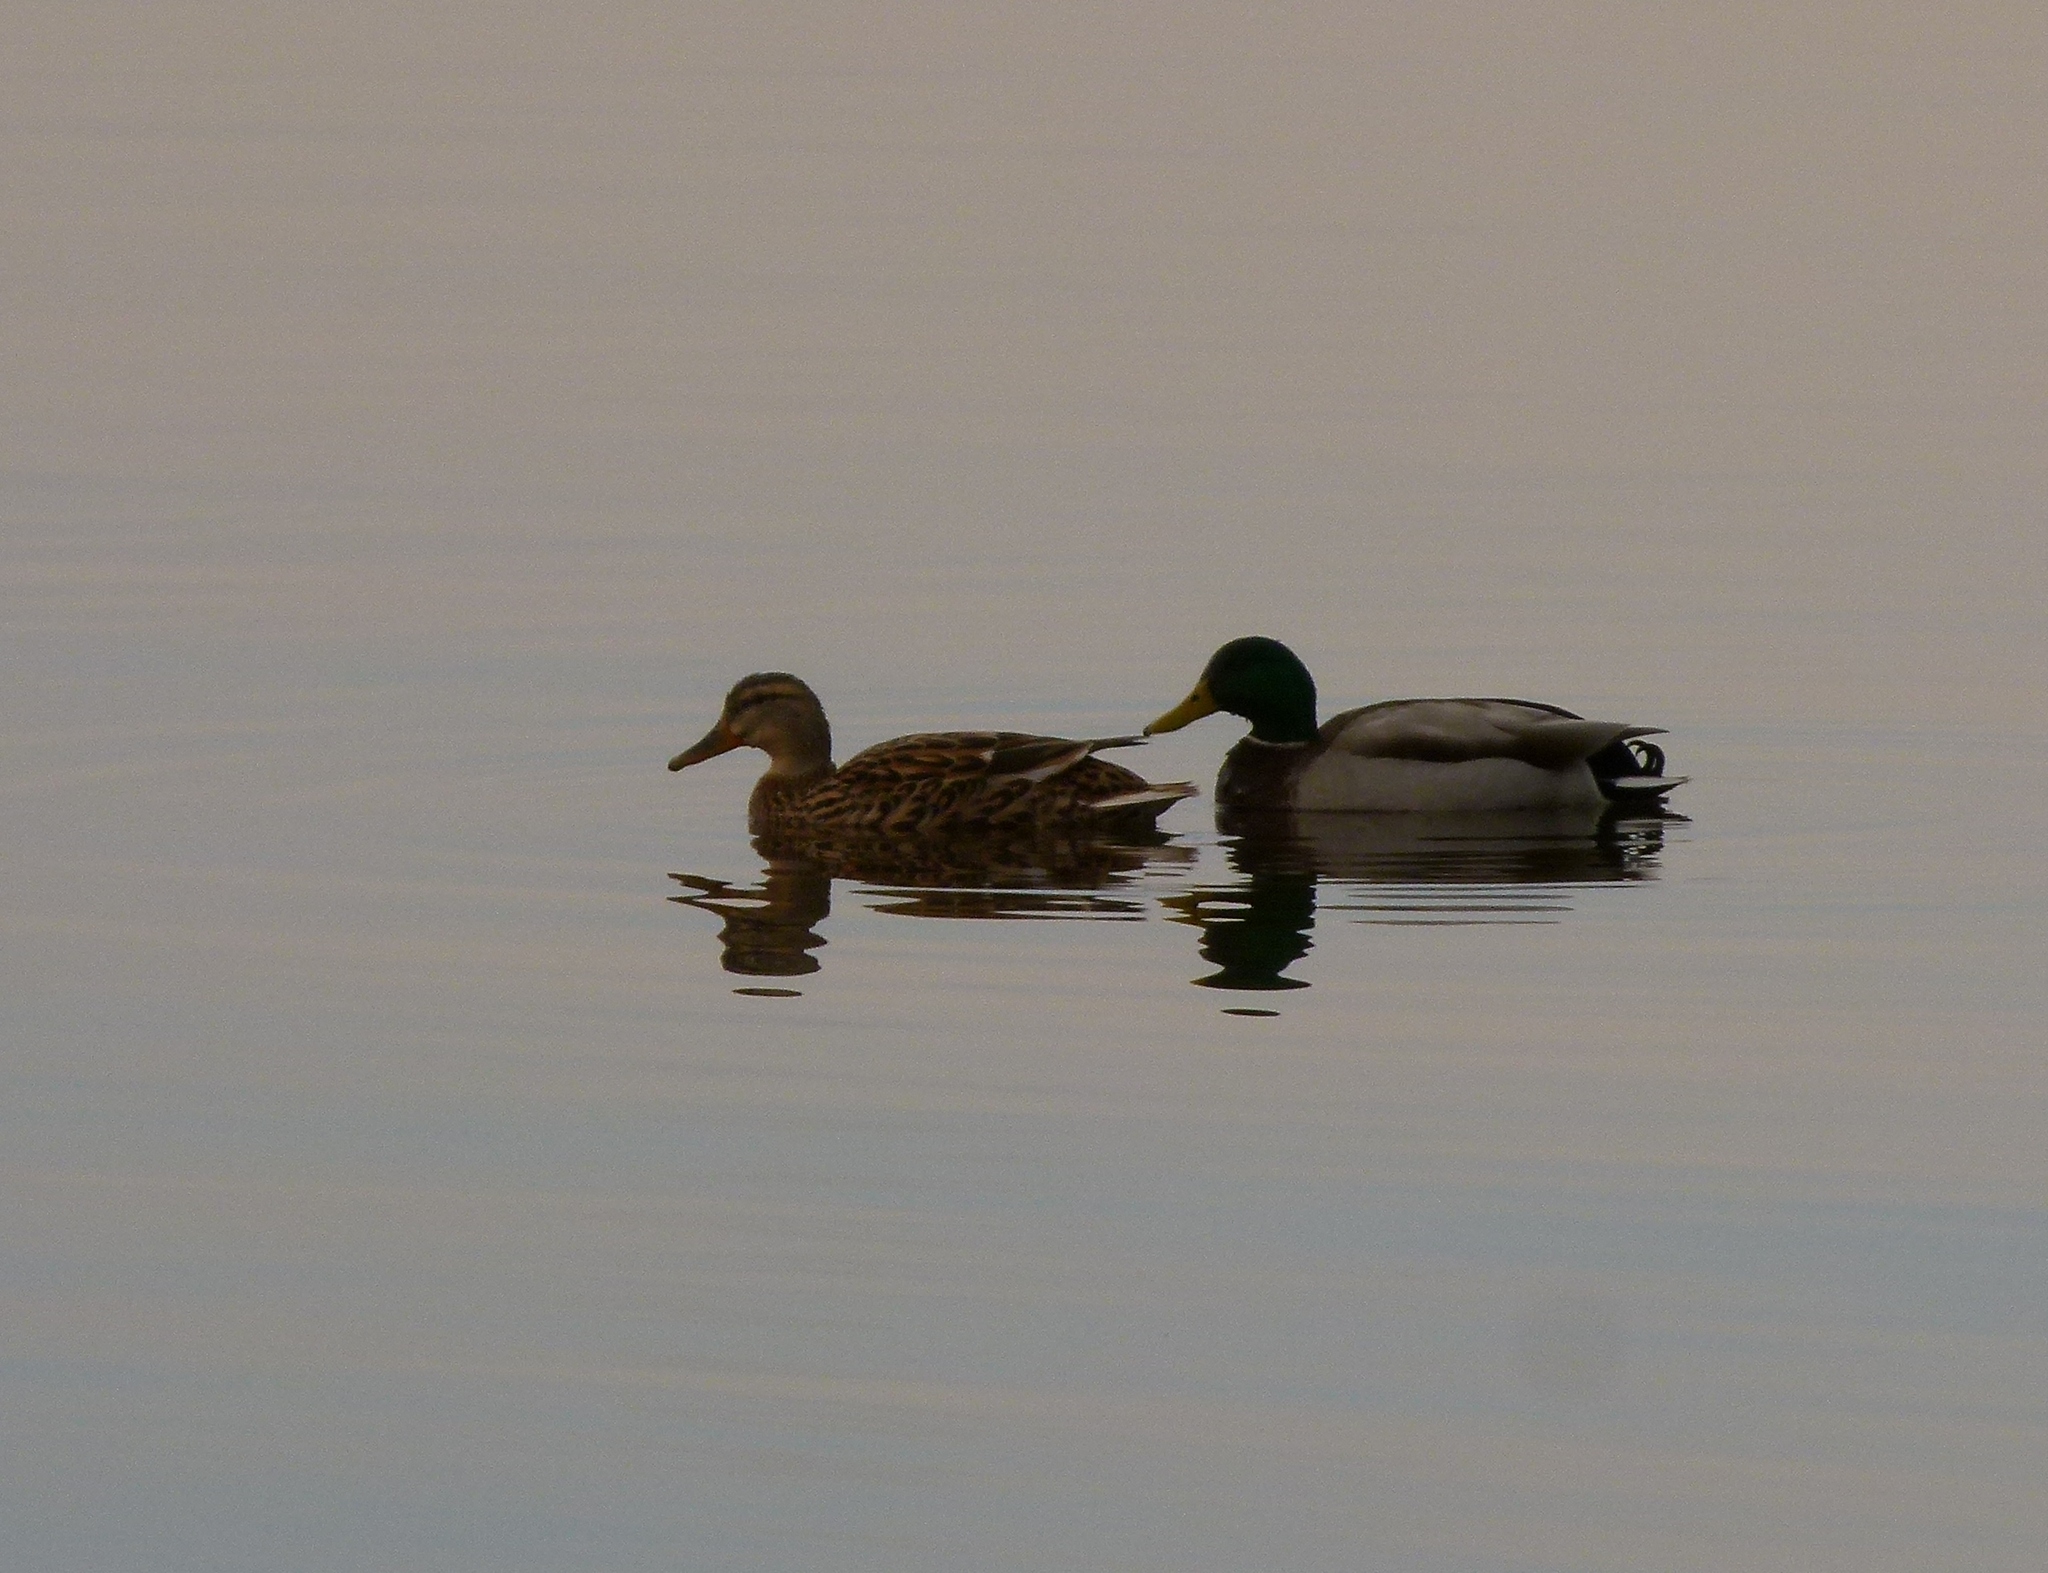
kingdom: Animalia
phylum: Chordata
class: Aves
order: Anseriformes
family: Anatidae
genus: Anas
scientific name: Anas platyrhynchos
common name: Mallard
